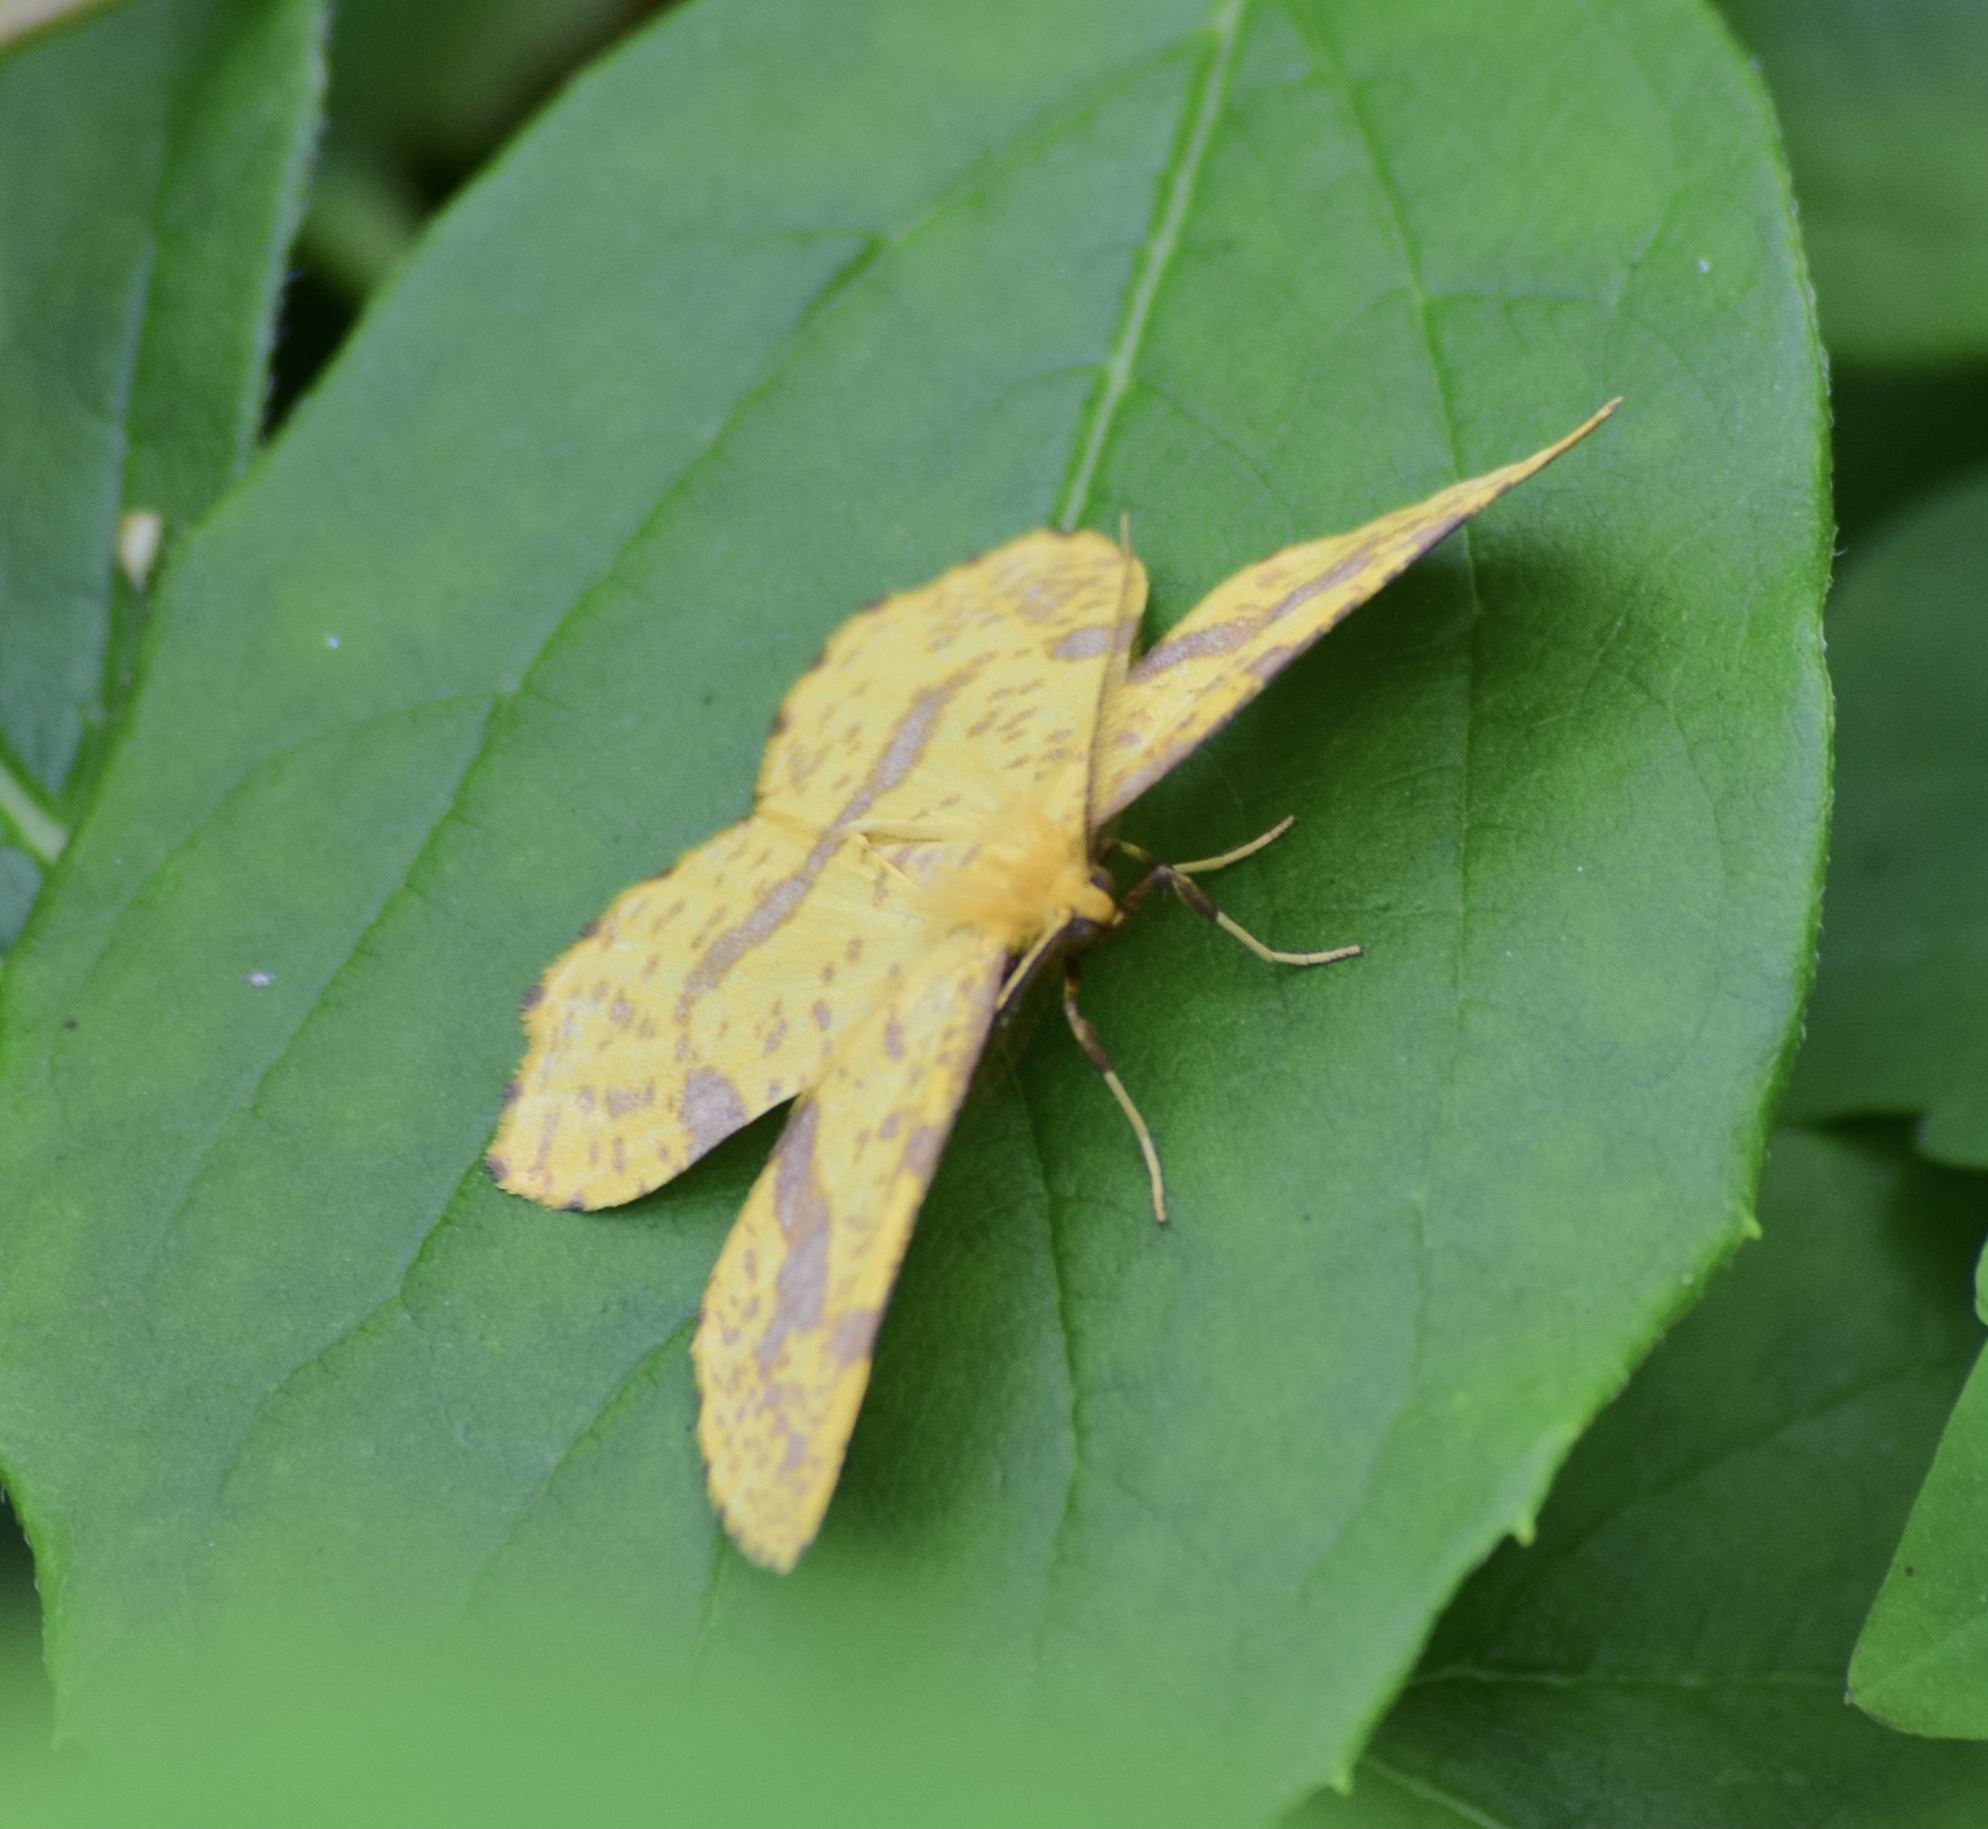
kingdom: Animalia
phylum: Arthropoda
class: Insecta
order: Lepidoptera
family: Geometridae
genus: Xanthotype
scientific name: Xanthotype
